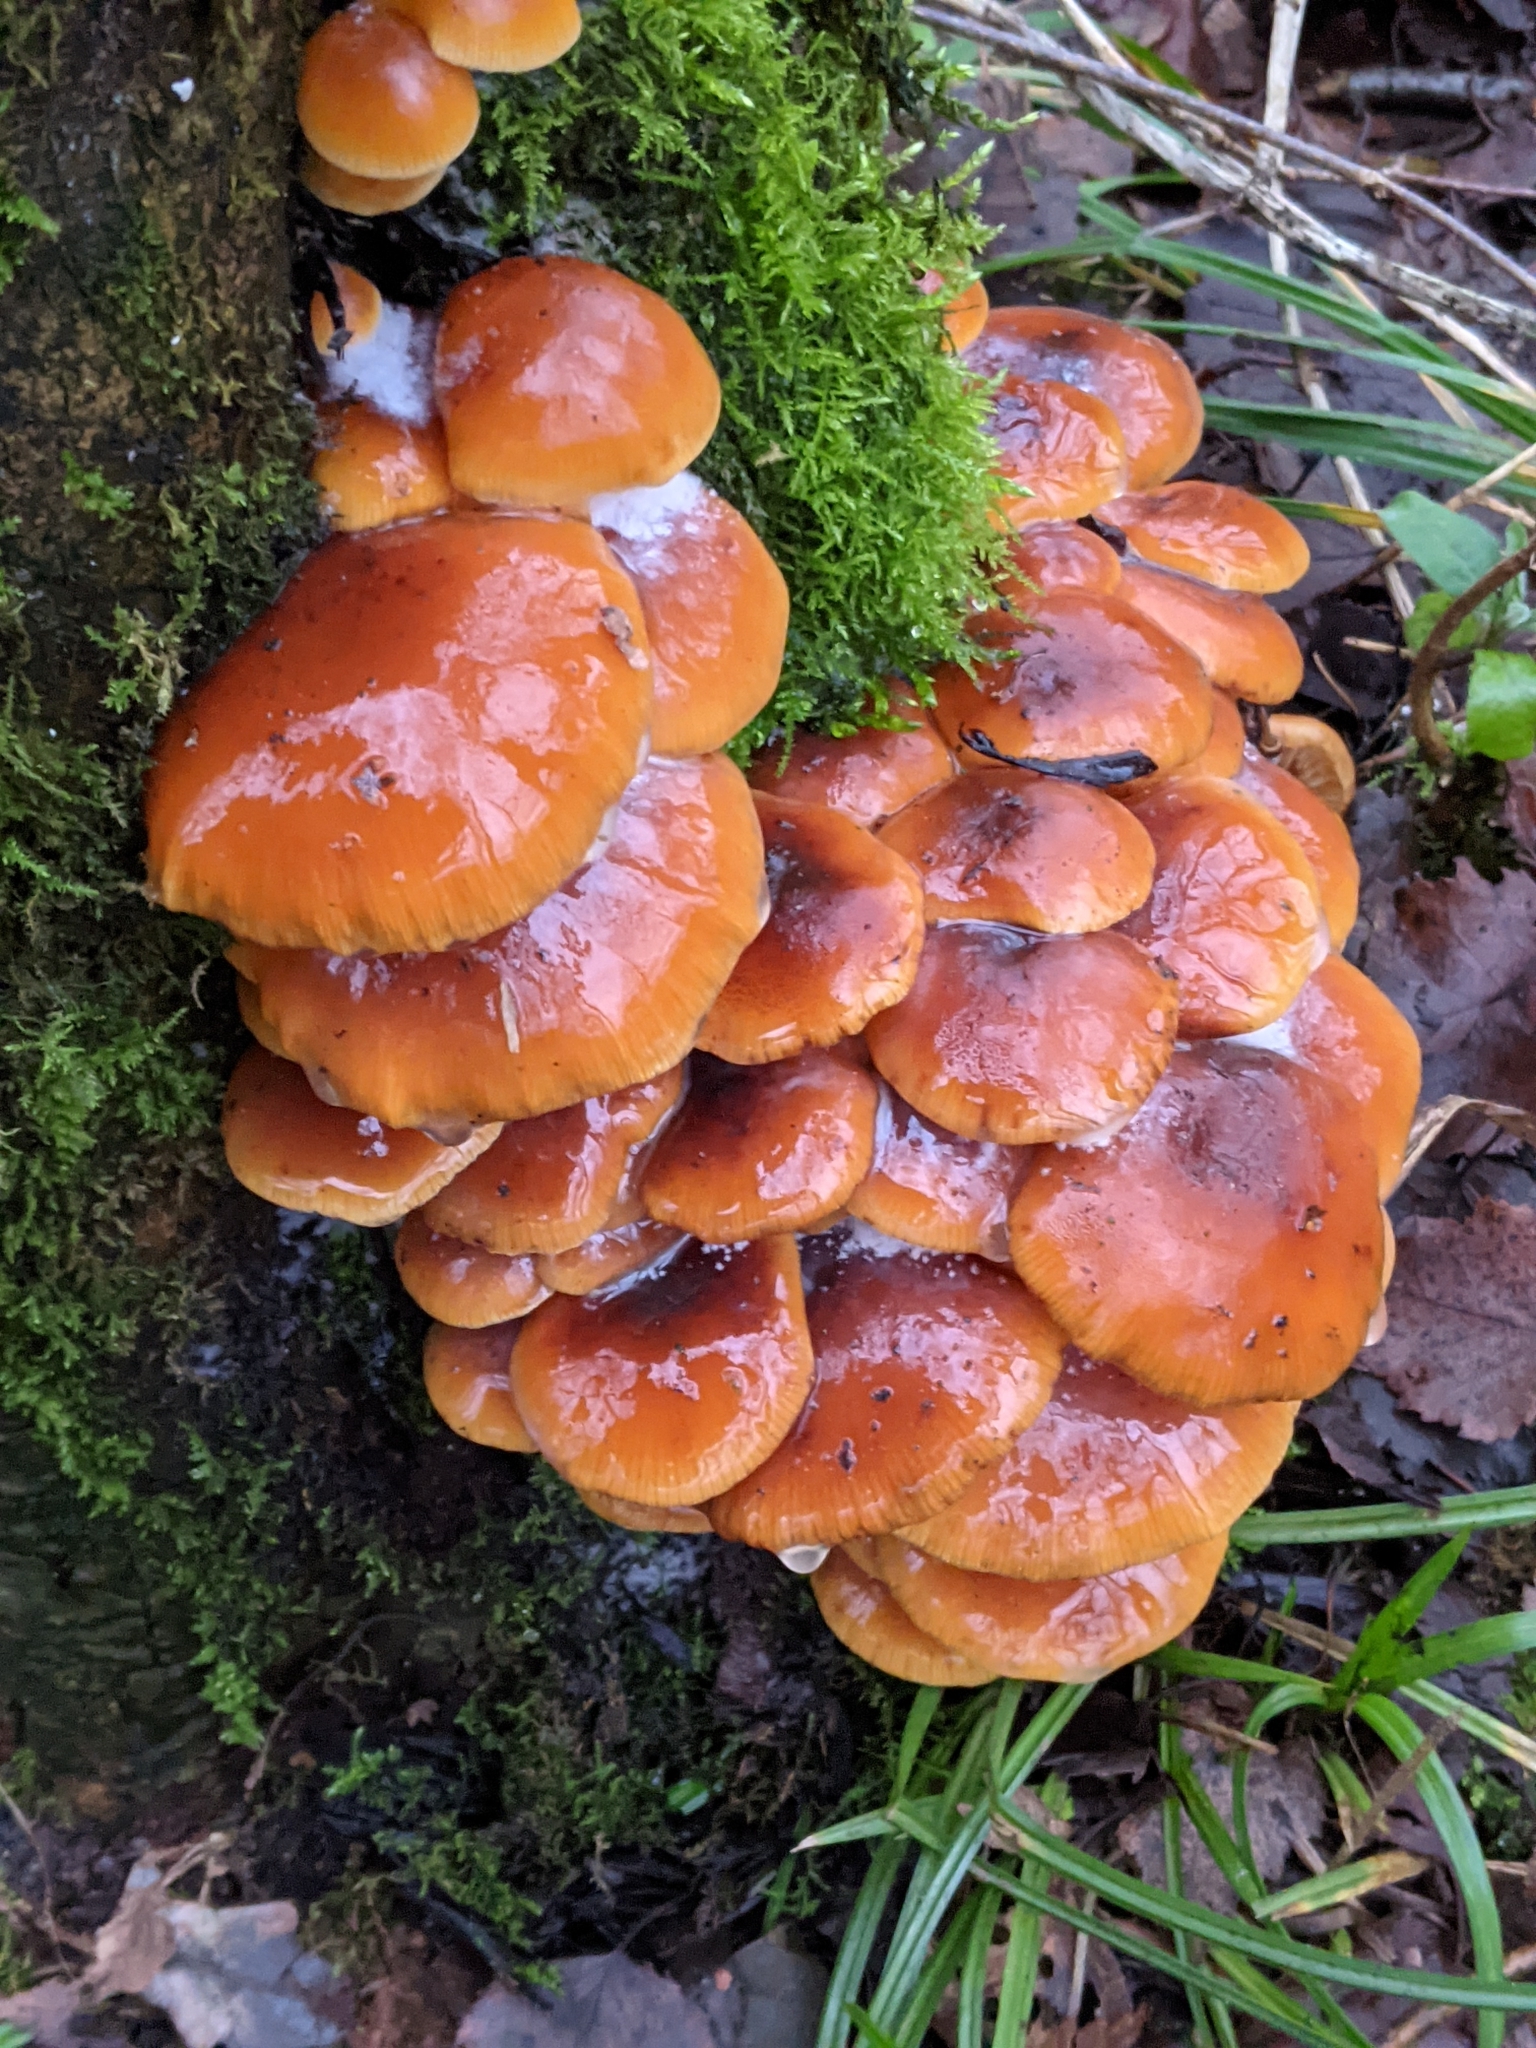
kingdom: Fungi
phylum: Basidiomycota
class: Agaricomycetes
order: Agaricales
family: Physalacriaceae
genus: Flammulina
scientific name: Flammulina
